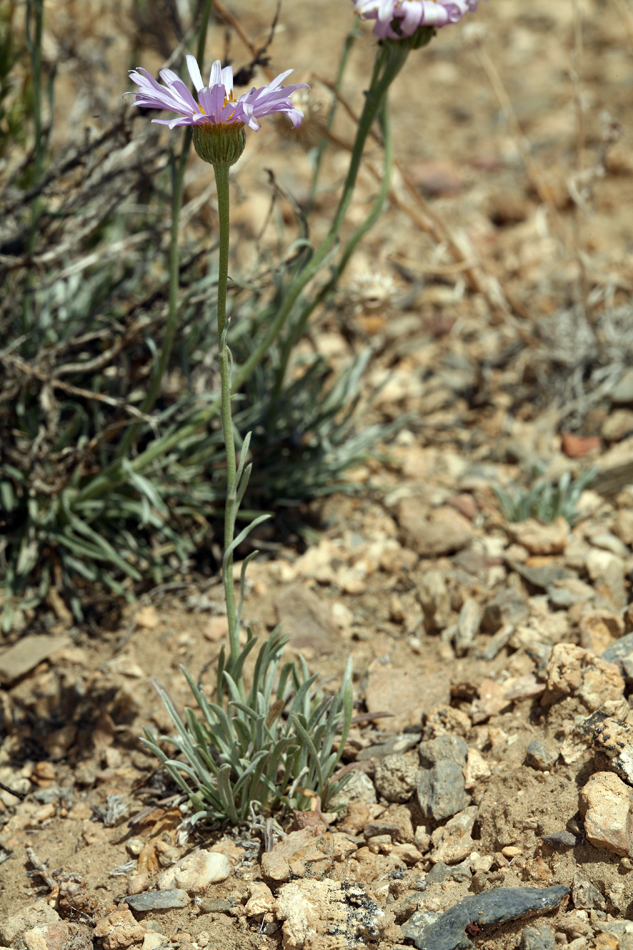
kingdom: Plantae
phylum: Tracheophyta
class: Magnoliopsida
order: Asterales
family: Asteraceae
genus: Erigeron
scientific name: Erigeron argentatus
